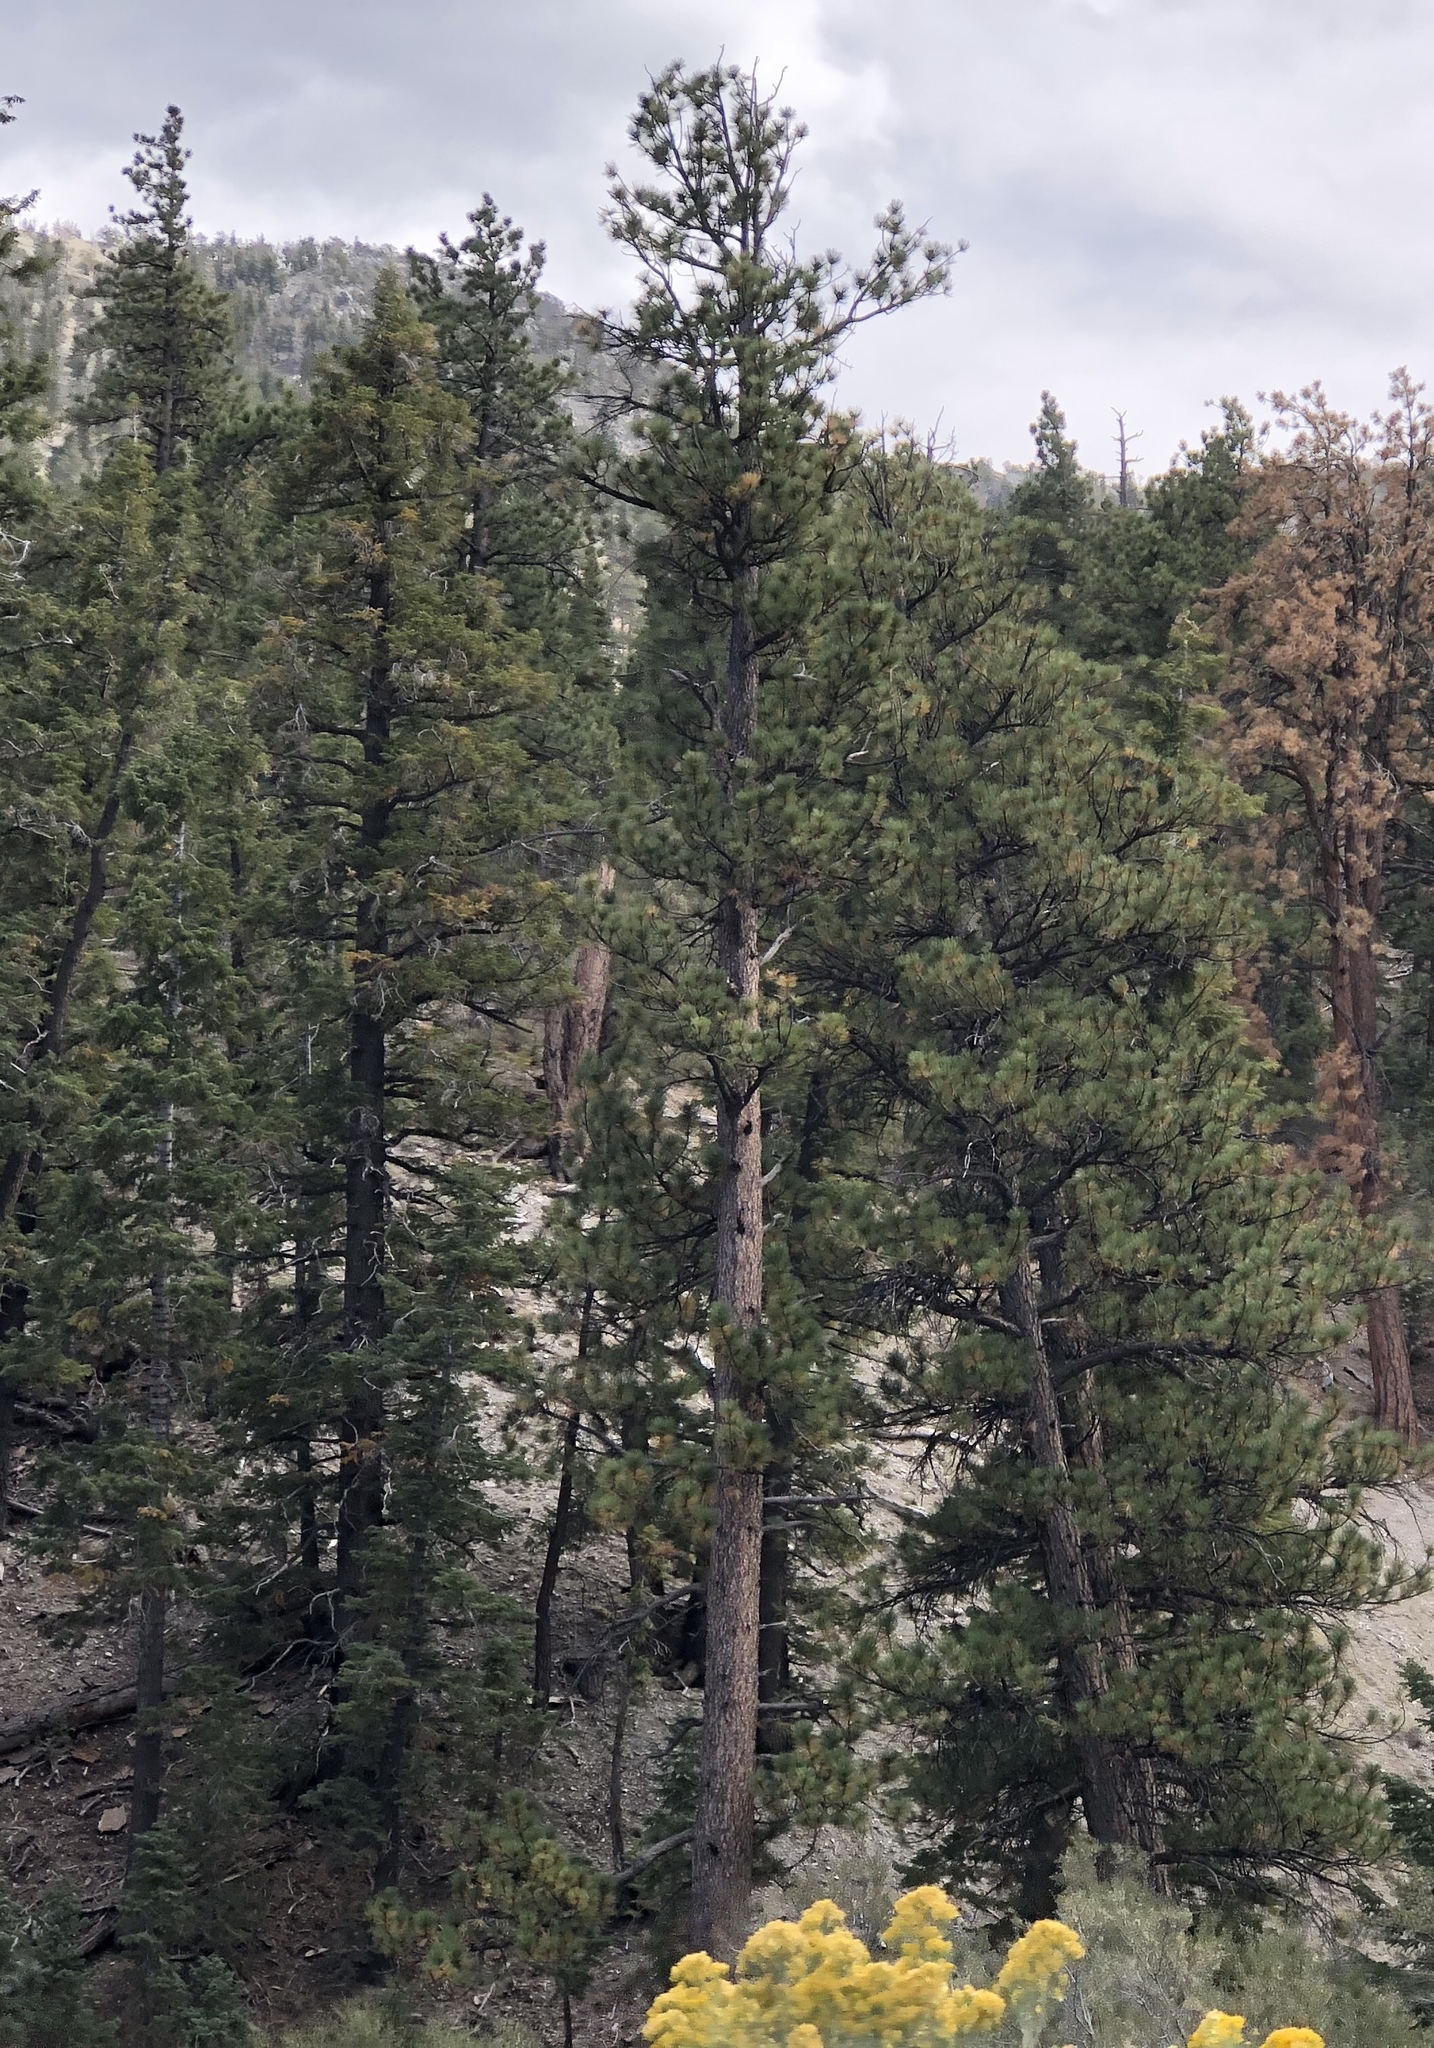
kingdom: Plantae
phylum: Tracheophyta
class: Pinopsida
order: Pinales
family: Pinaceae
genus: Pinus
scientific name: Pinus ponderosa
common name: Western yellow-pine
